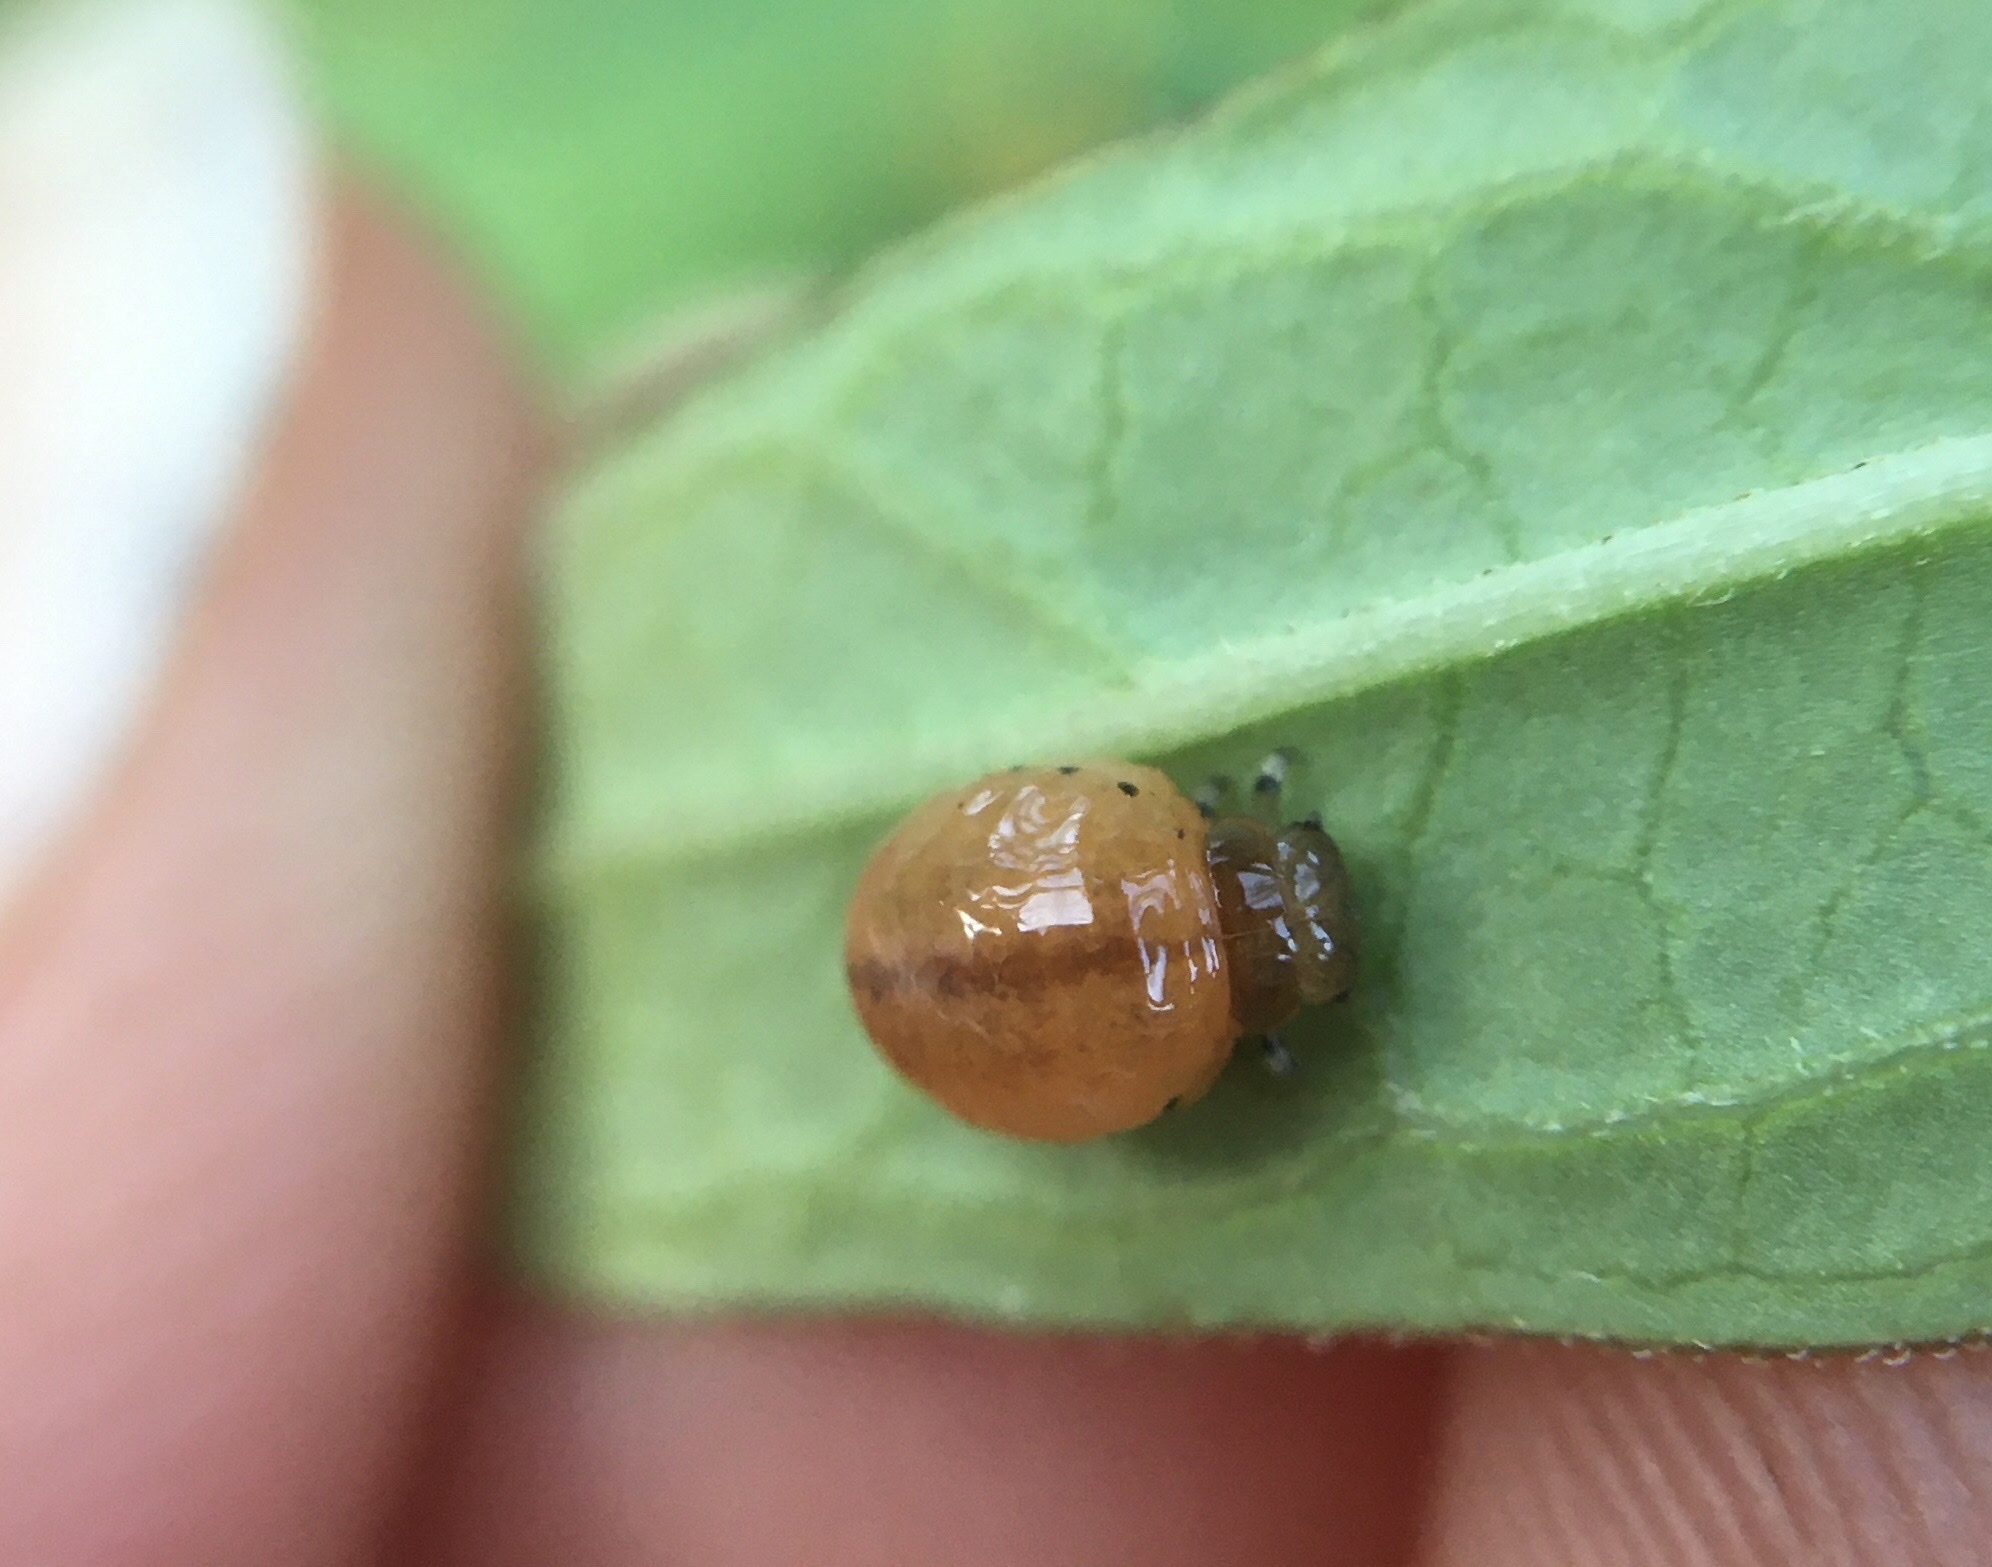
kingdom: Animalia
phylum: Arthropoda
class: Insecta
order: Coleoptera
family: Chrysomelidae
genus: Labidomera
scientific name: Labidomera clivicollis
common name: Swamp milkweed leaf beetle
